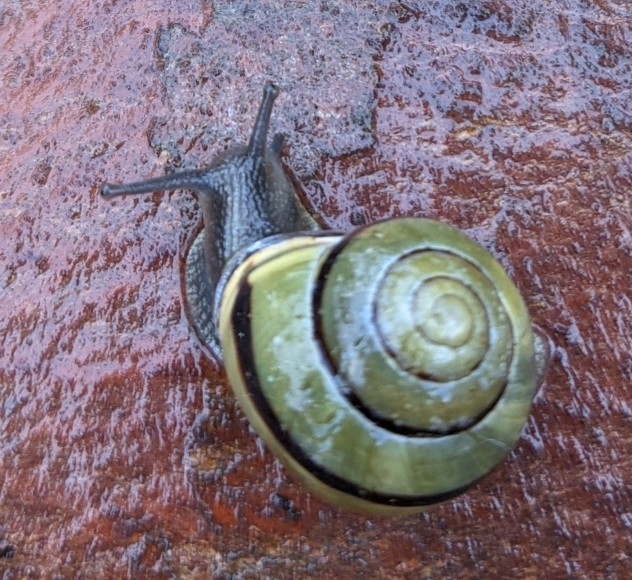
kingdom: Animalia
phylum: Mollusca
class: Gastropoda
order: Stylommatophora
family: Helicidae
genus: Cepaea
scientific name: Cepaea nemoralis
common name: Grovesnail
